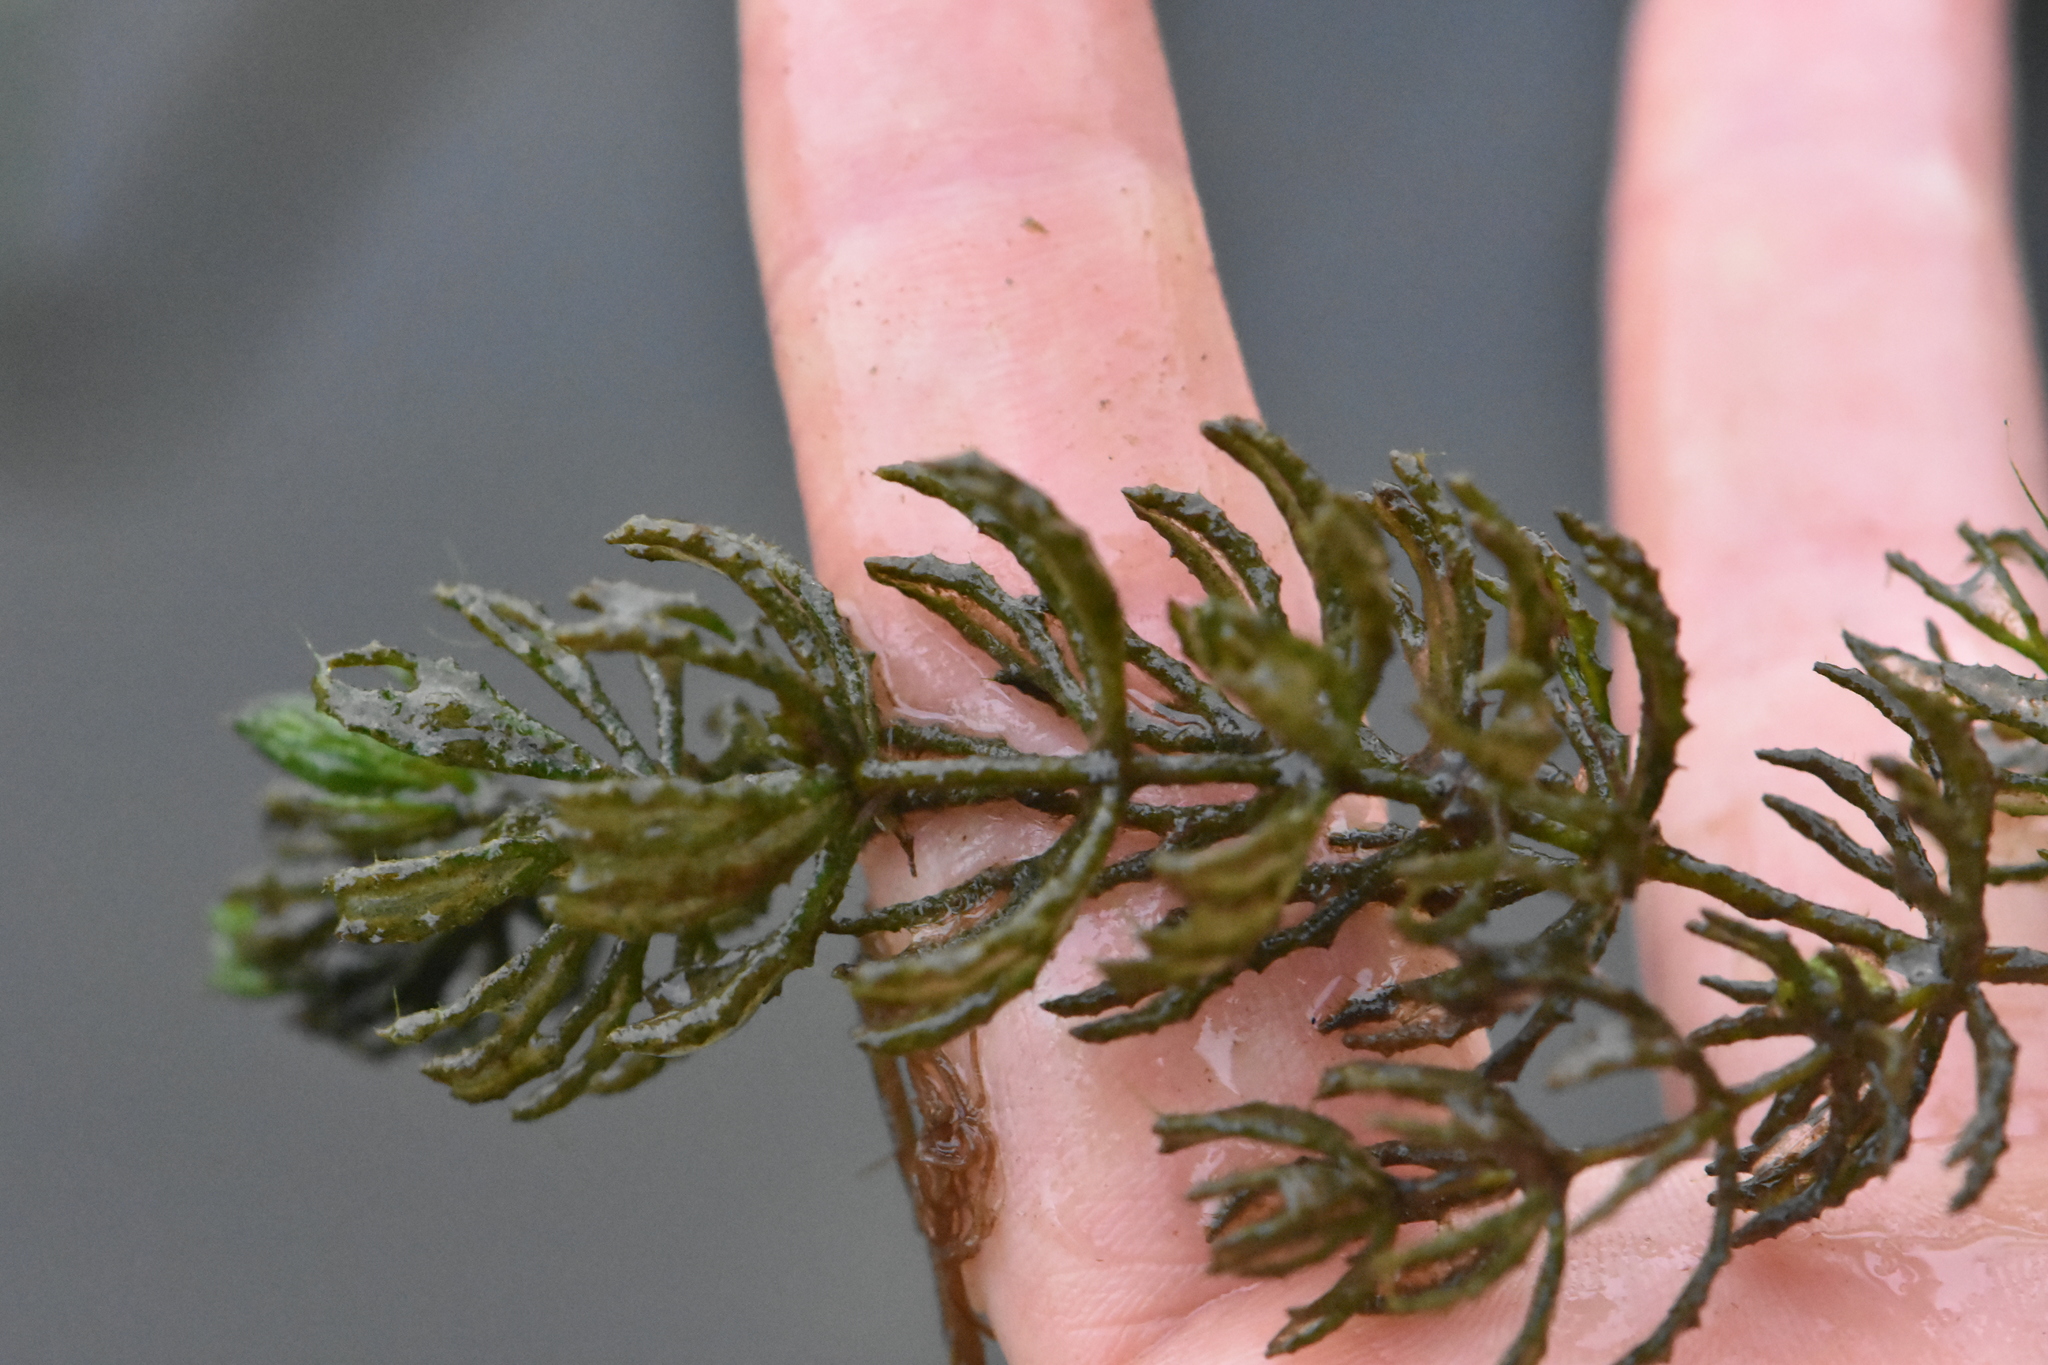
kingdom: Plantae
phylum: Tracheophyta
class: Magnoliopsida
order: Ceratophyllales
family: Ceratophyllaceae
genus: Ceratophyllum
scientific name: Ceratophyllum demersum
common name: Rigid hornwort
